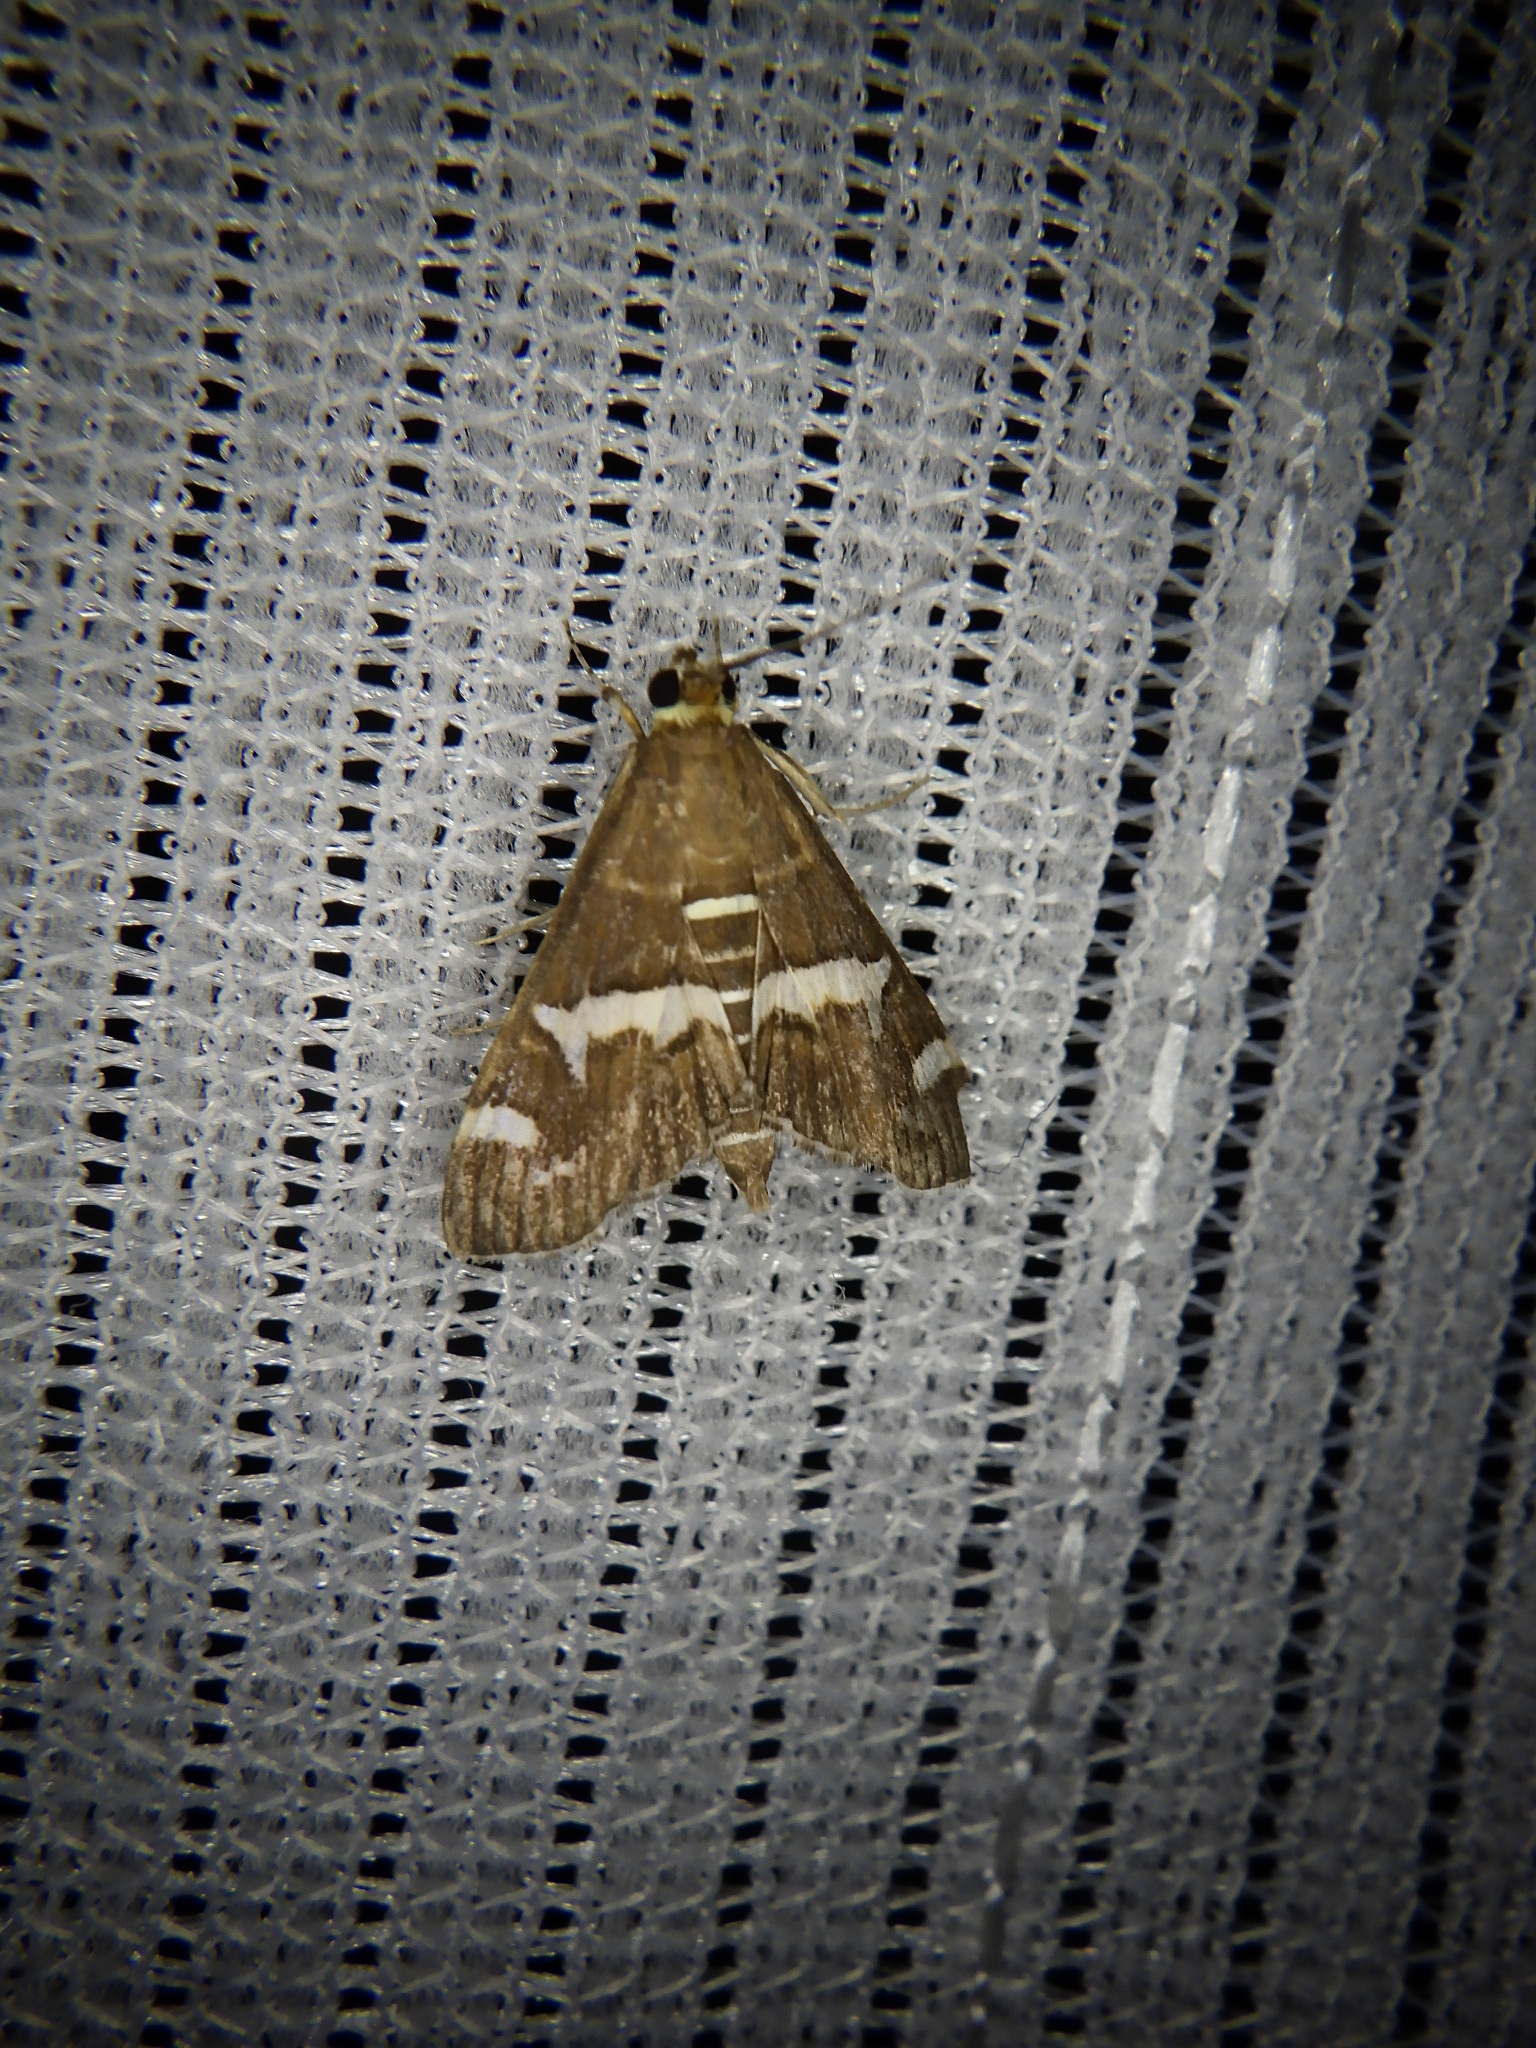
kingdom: Animalia
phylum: Arthropoda
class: Insecta
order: Lepidoptera
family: Crambidae
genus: Spoladea
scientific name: Spoladea recurvalis
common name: Beet webworm moth
